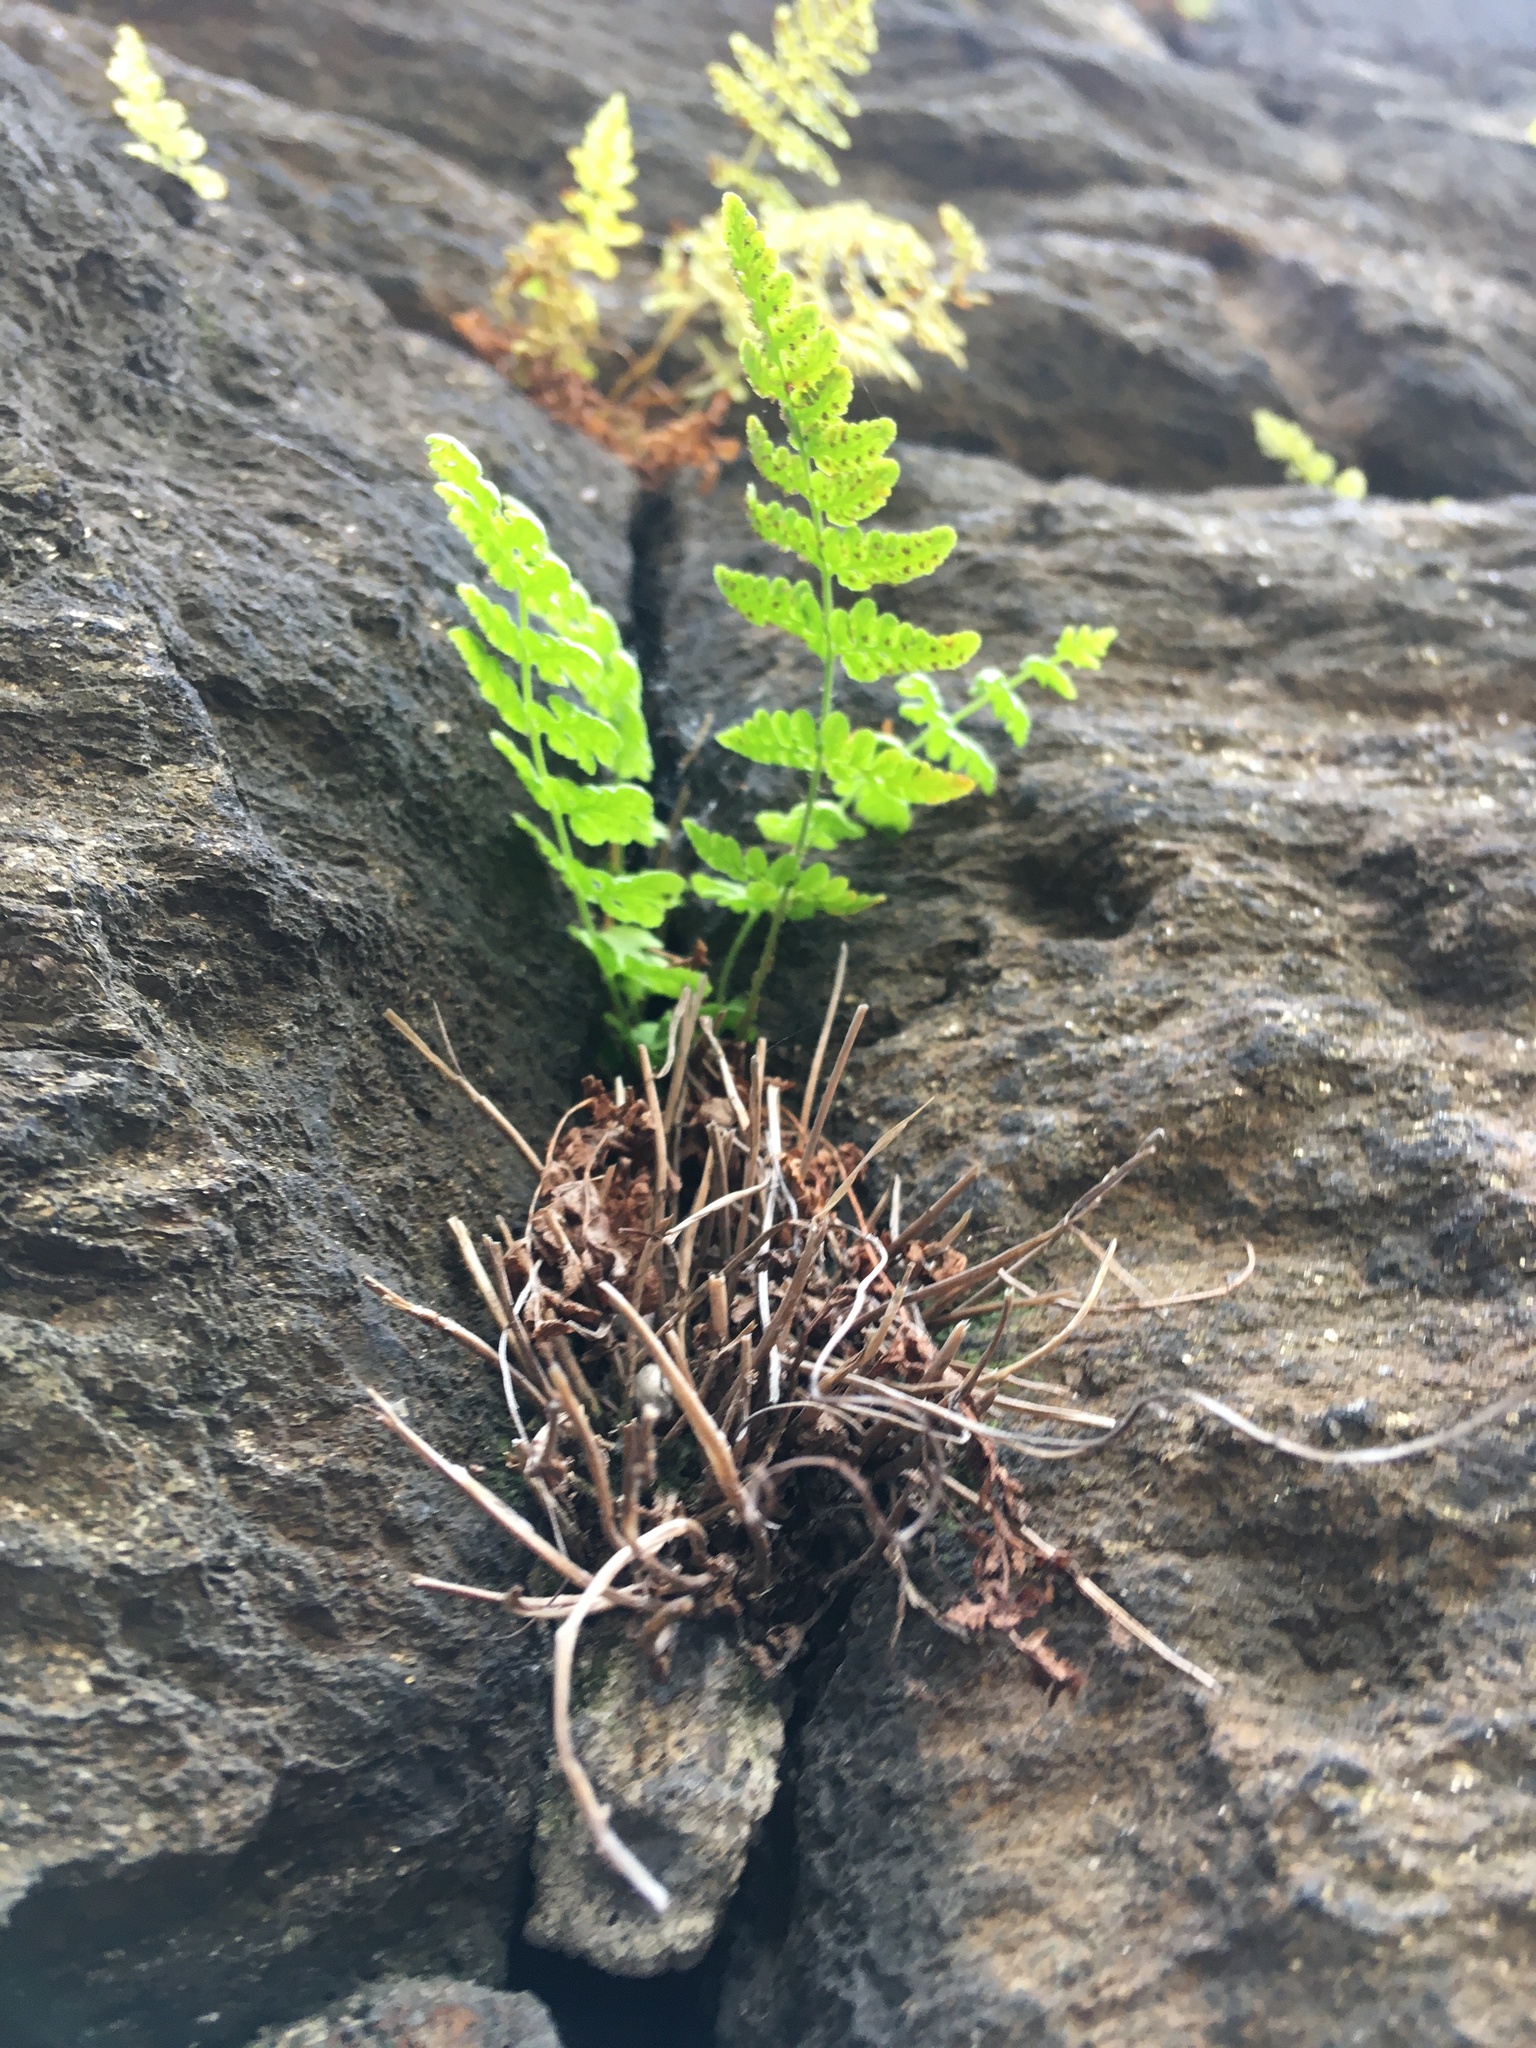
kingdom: Plantae
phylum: Tracheophyta
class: Polypodiopsida
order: Polypodiales
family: Woodsiaceae
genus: Physematium
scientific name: Physematium obtusum
